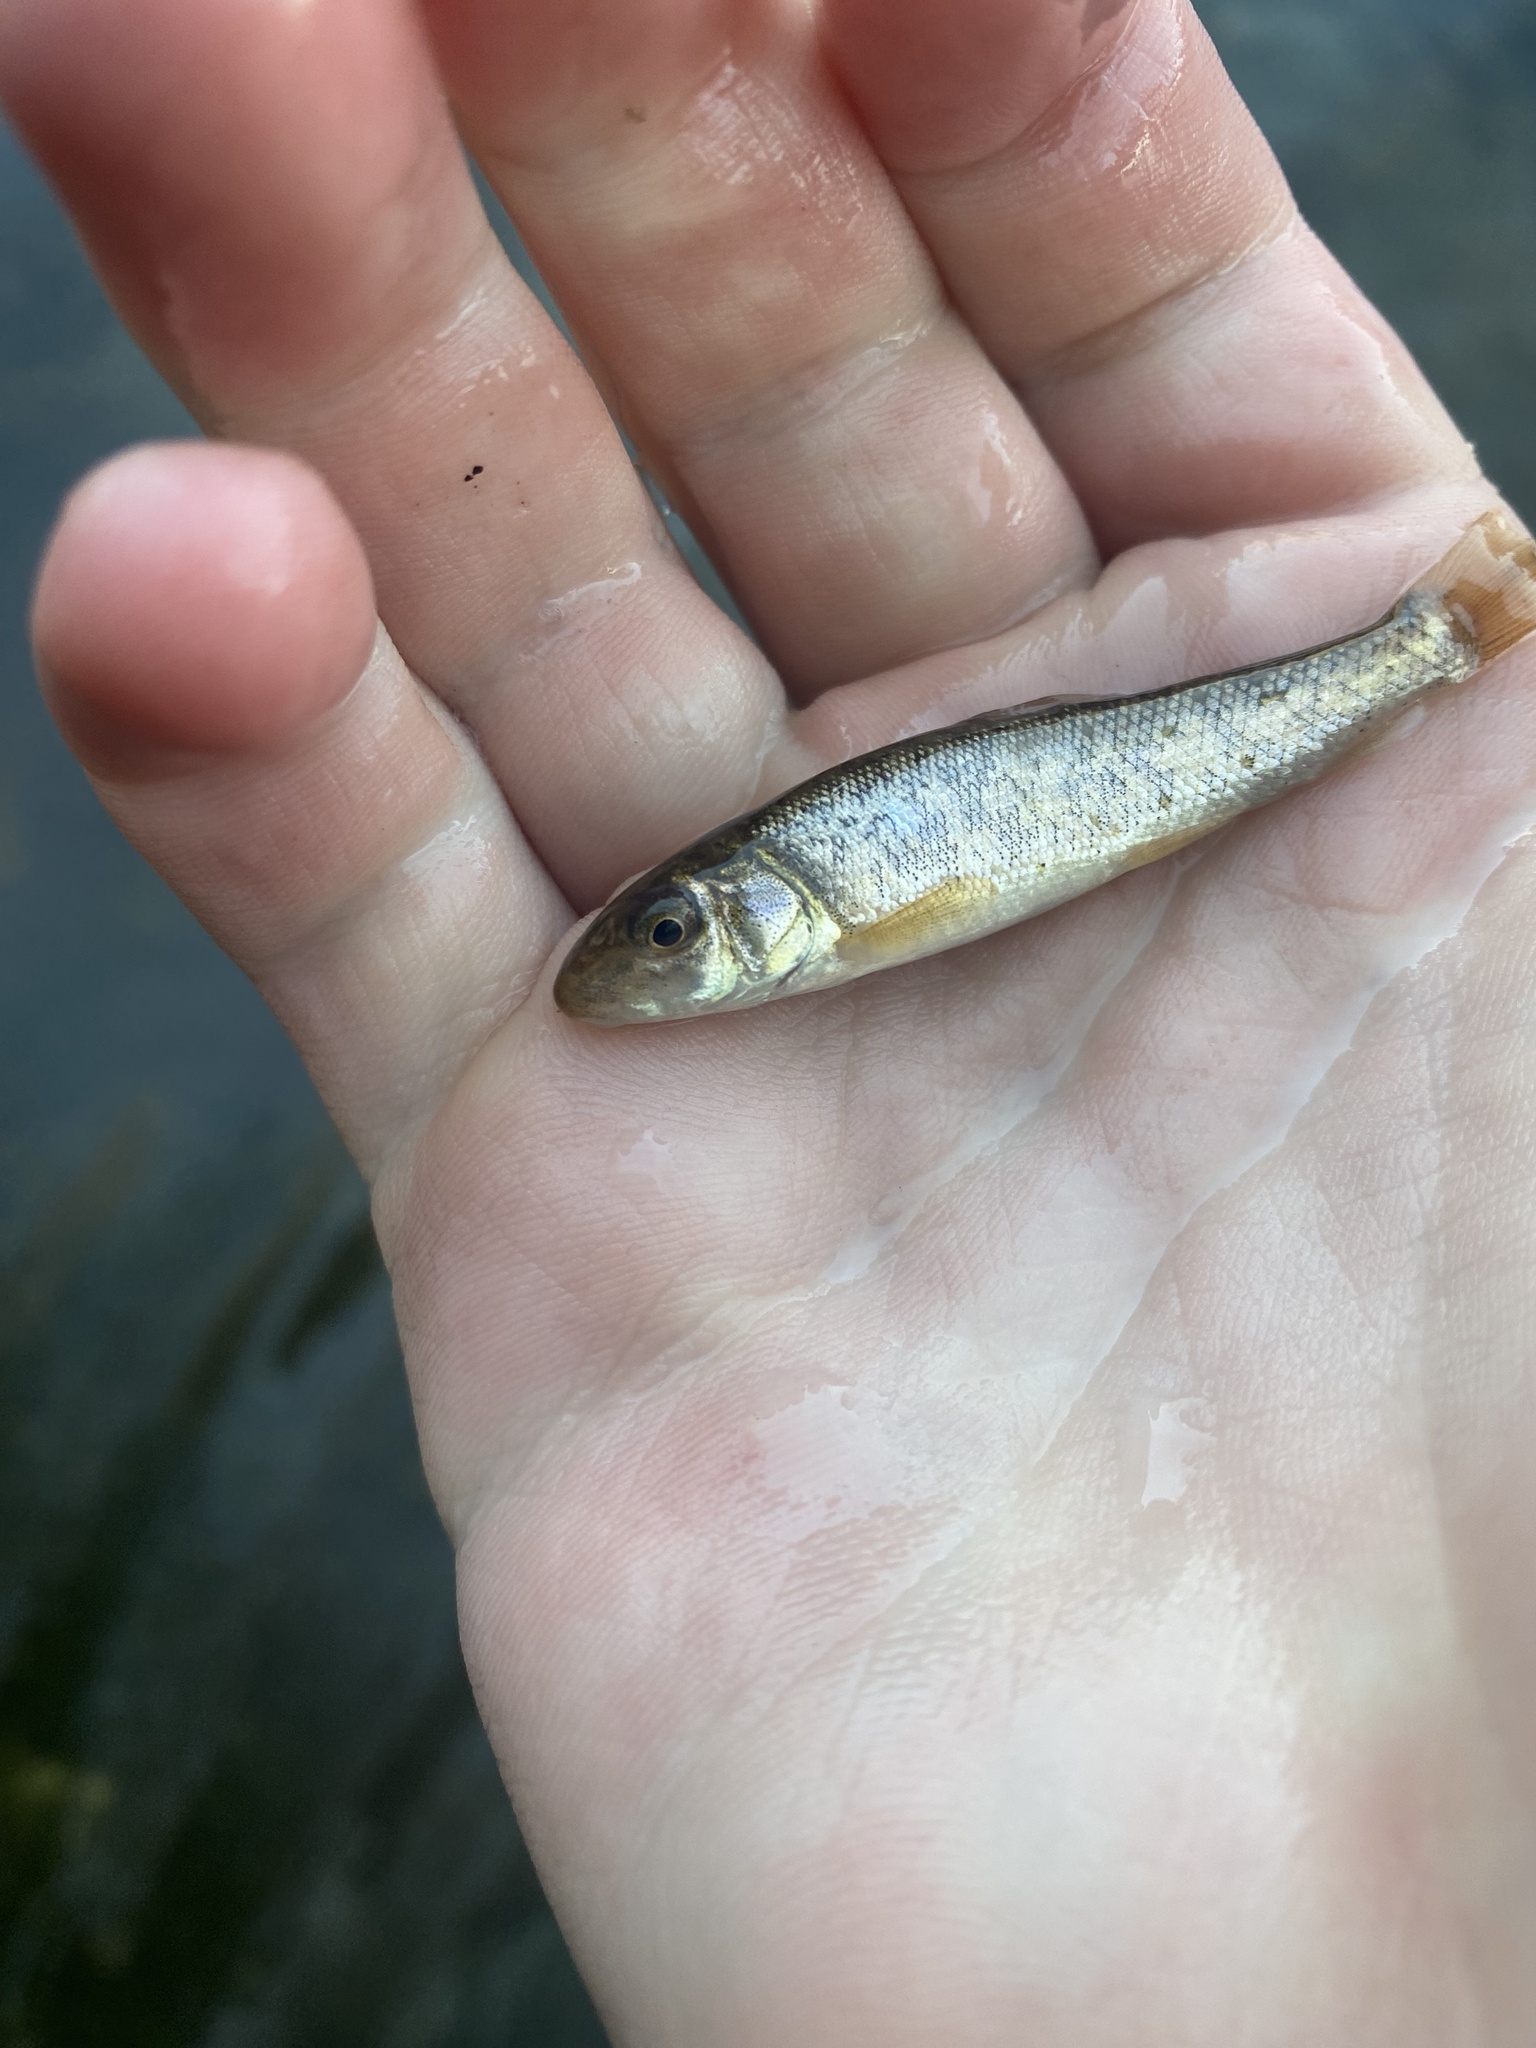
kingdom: Animalia
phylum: Chordata
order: Cypriniformes
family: Catostomidae
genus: Catostomus
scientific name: Catostomus commersonii
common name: White sucker
